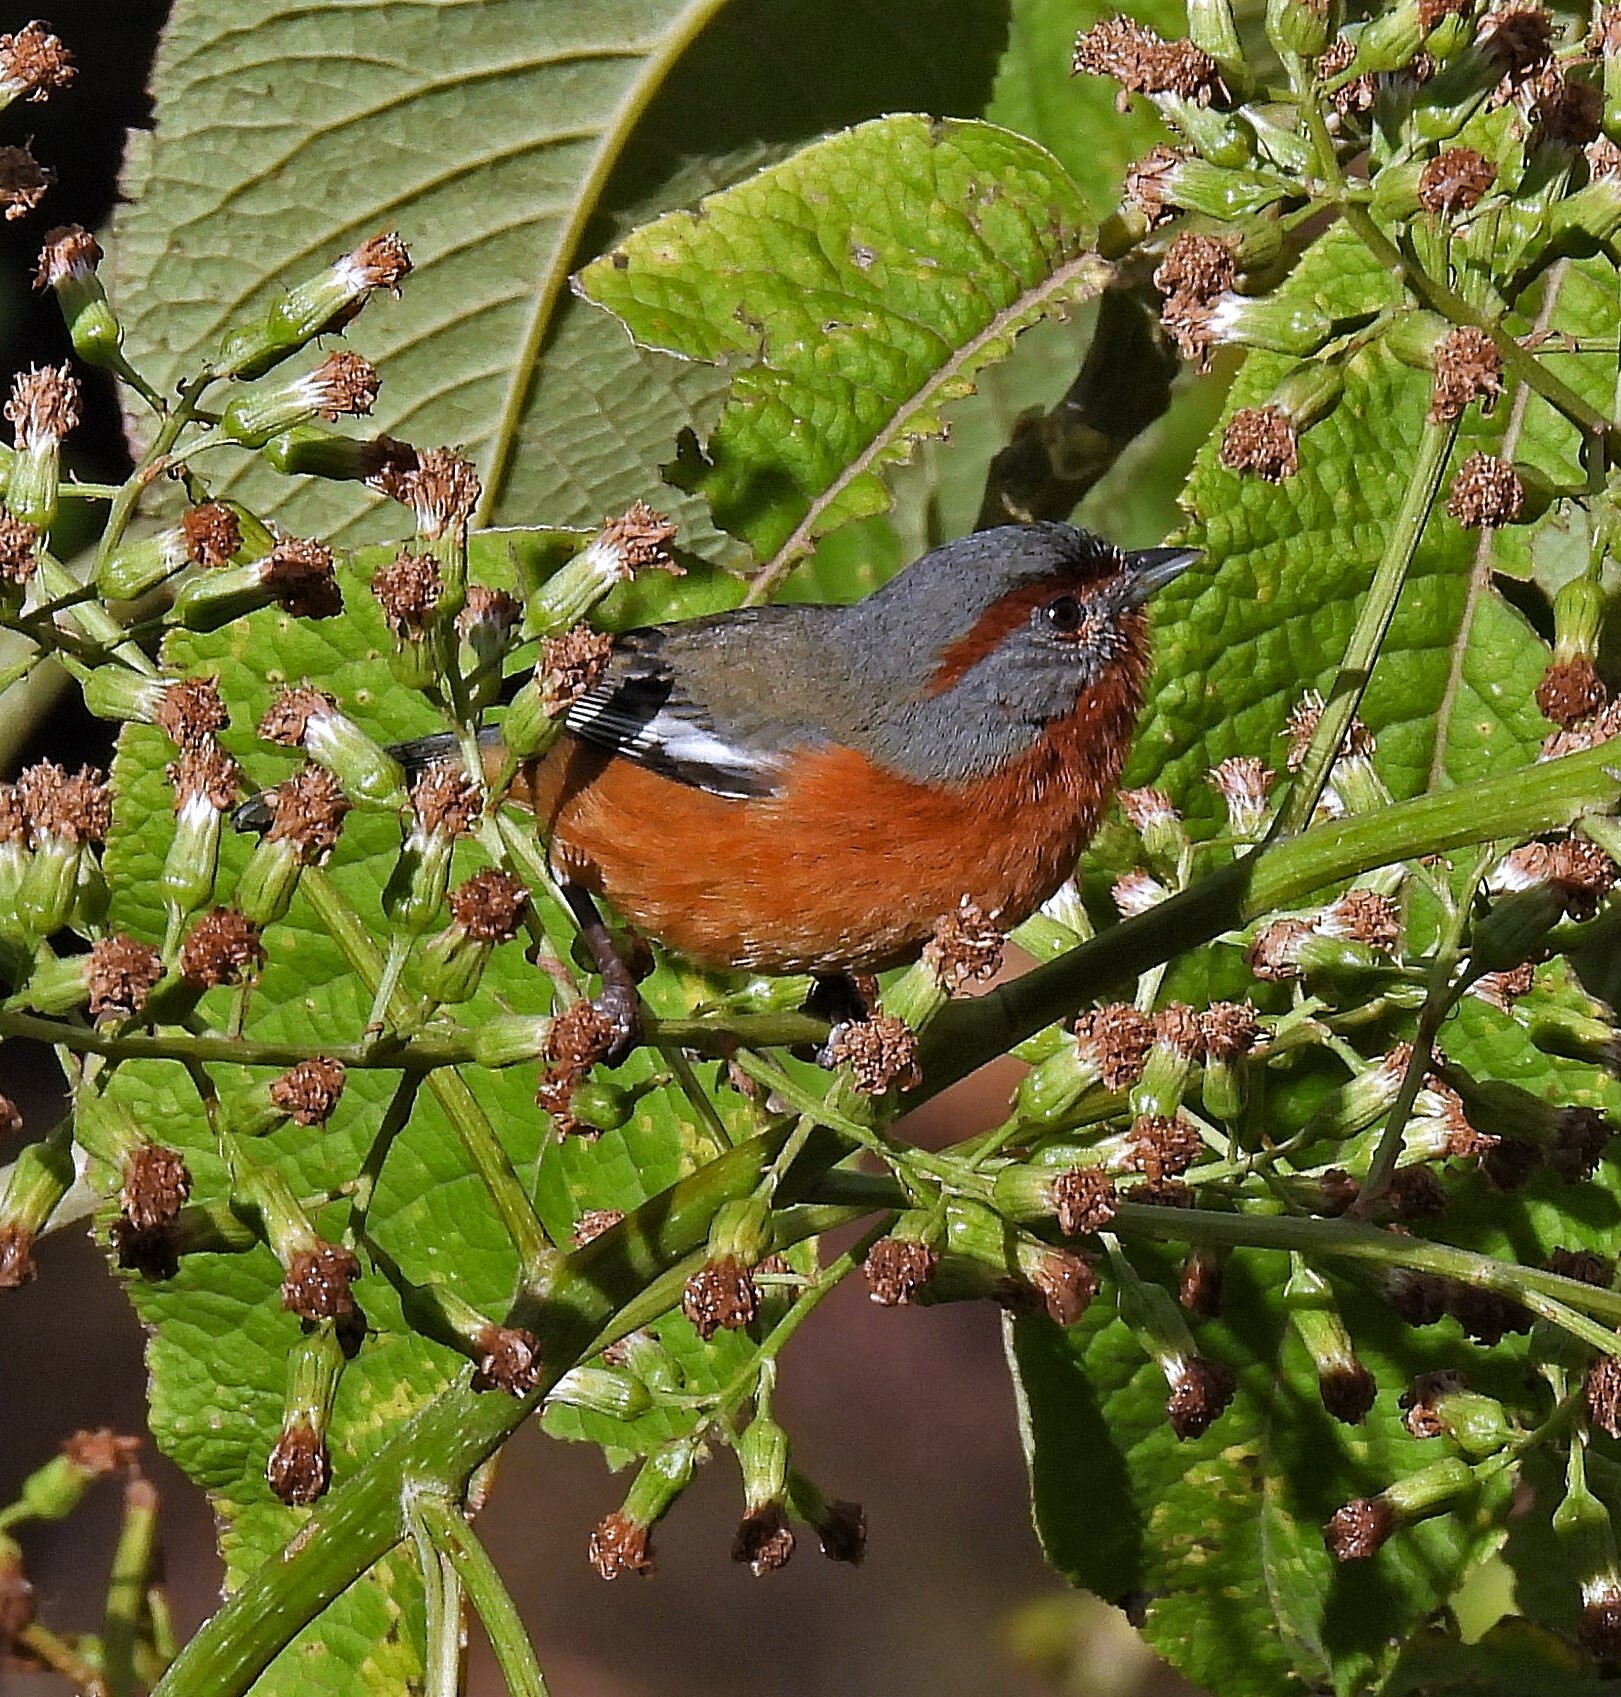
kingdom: Animalia
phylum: Chordata
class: Aves
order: Passeriformes
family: Thraupidae
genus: Microspingus
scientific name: Microspingus erythrophrys
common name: Rusty-browed warbling-finch
